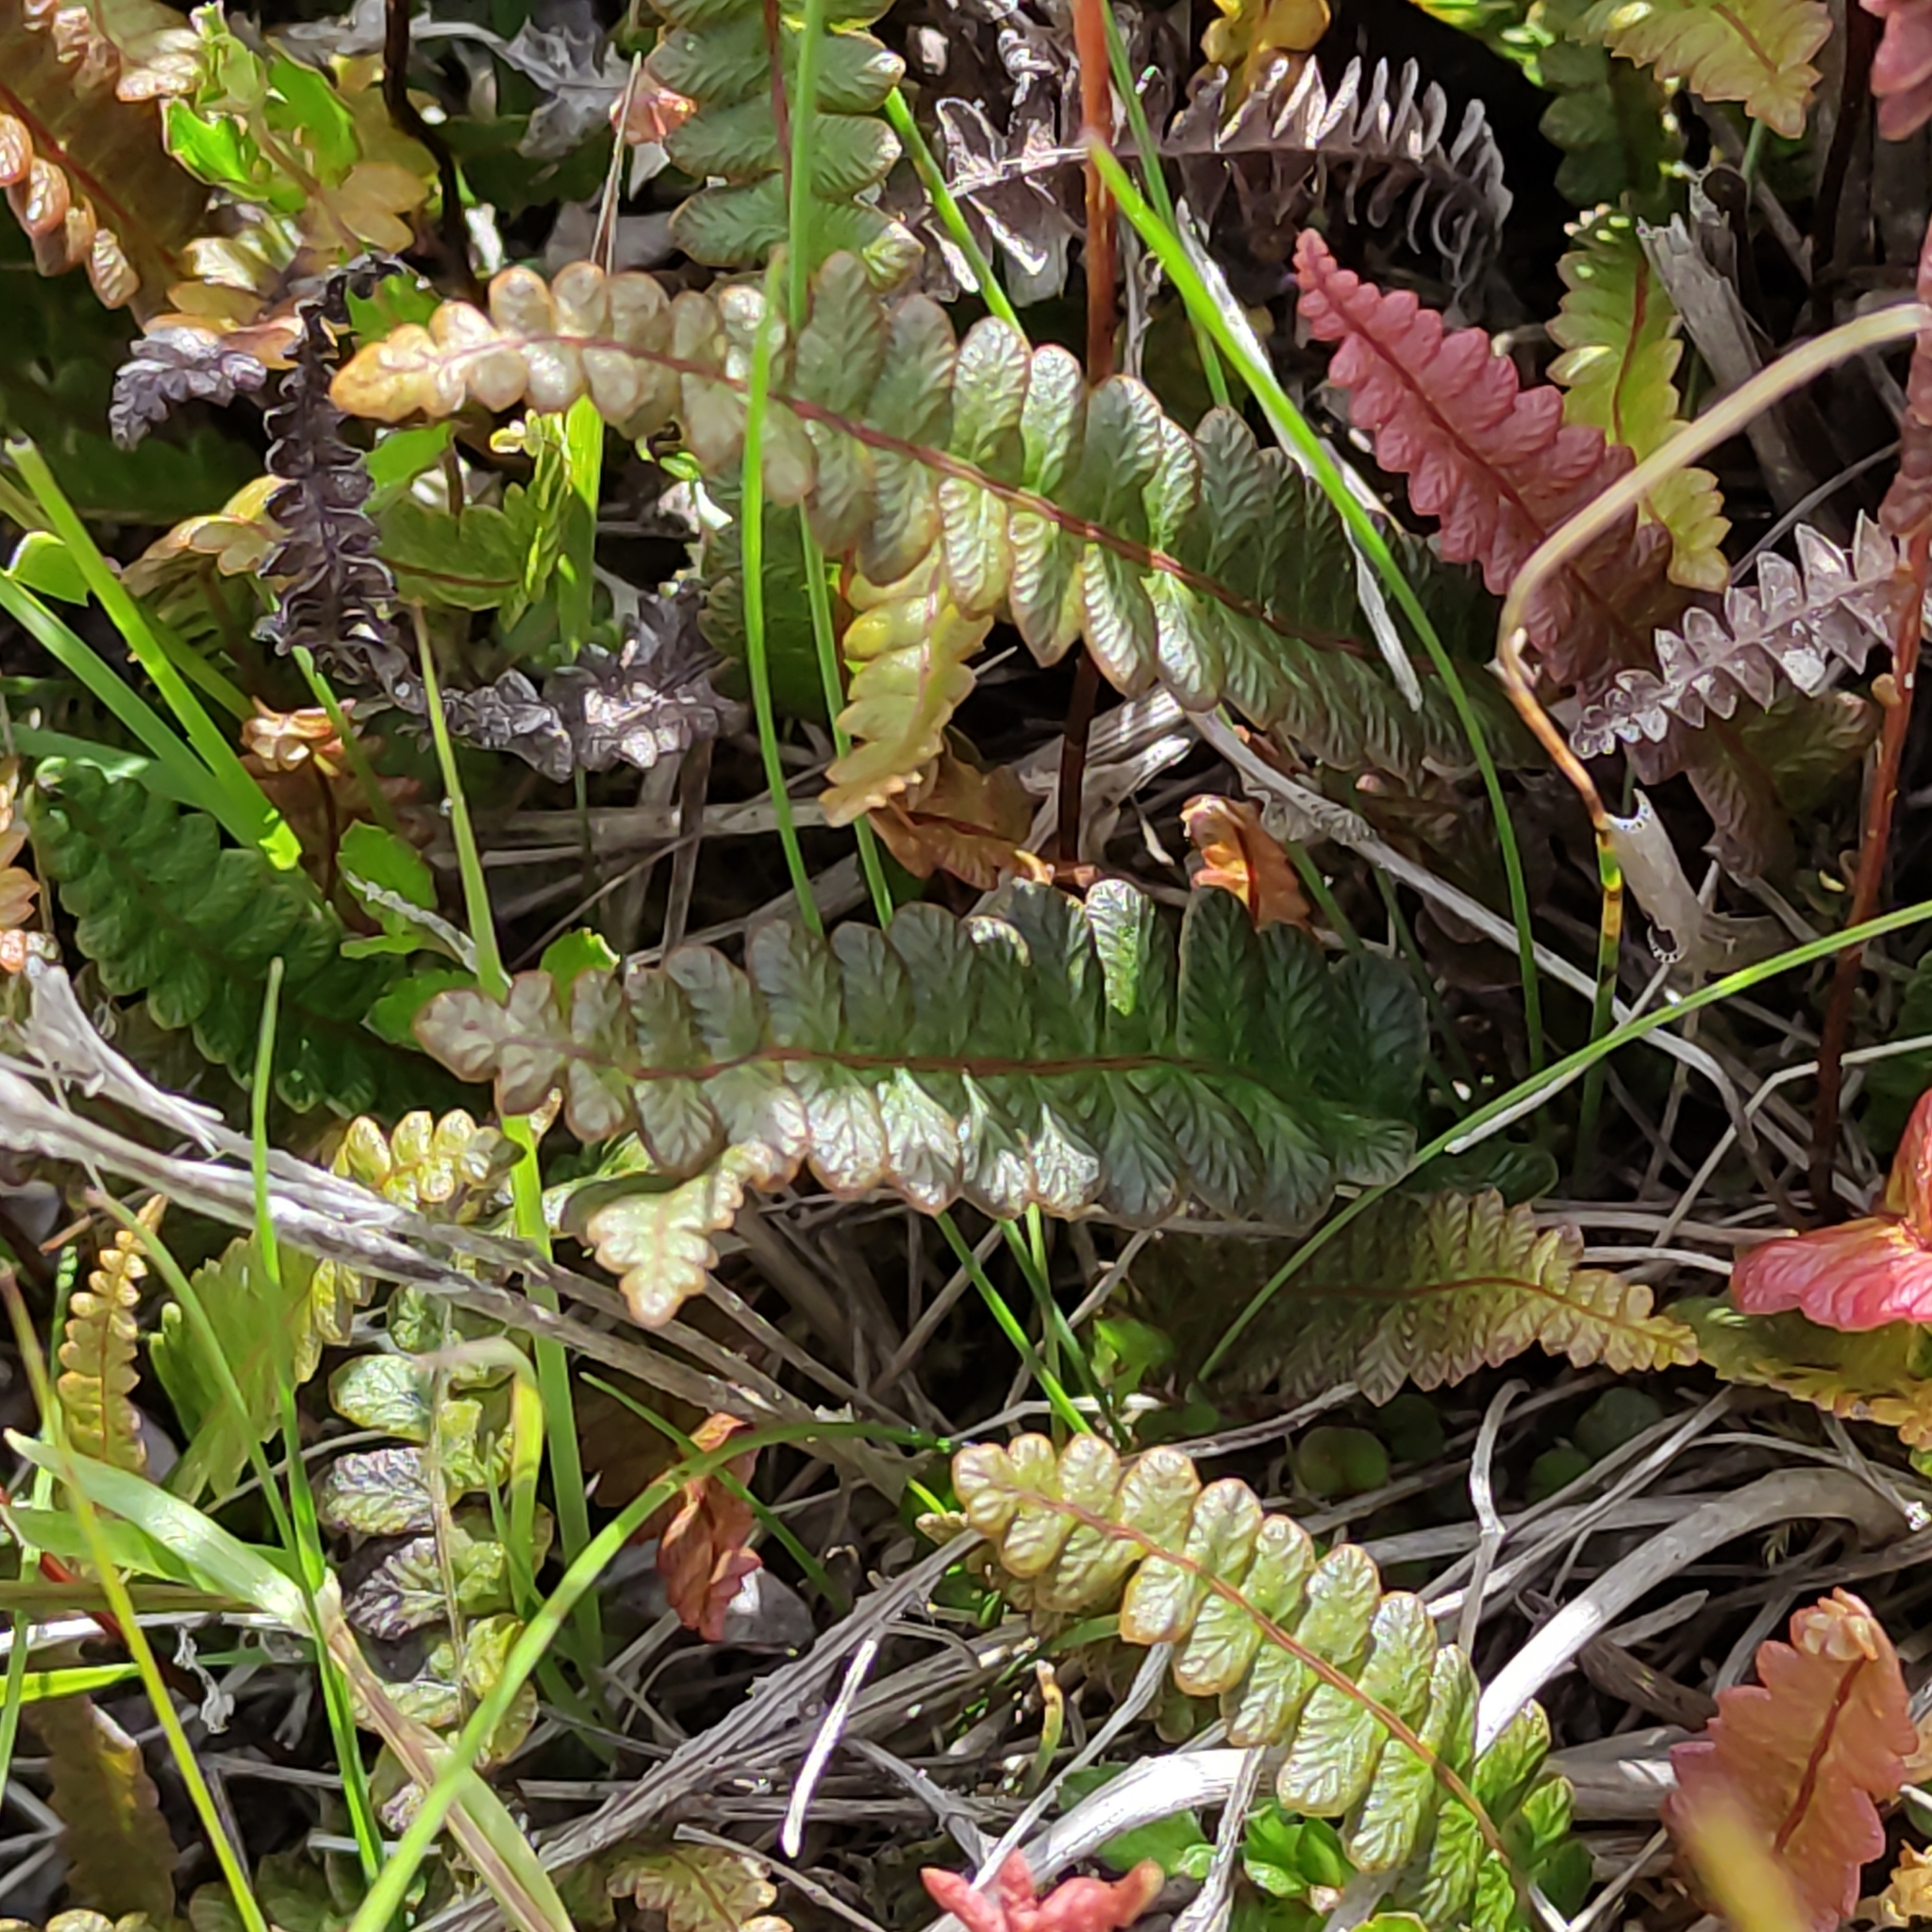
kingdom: Plantae
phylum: Tracheophyta
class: Polypodiopsida
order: Polypodiales
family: Blechnaceae
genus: Austroblechnum
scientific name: Austroblechnum penna-marina
